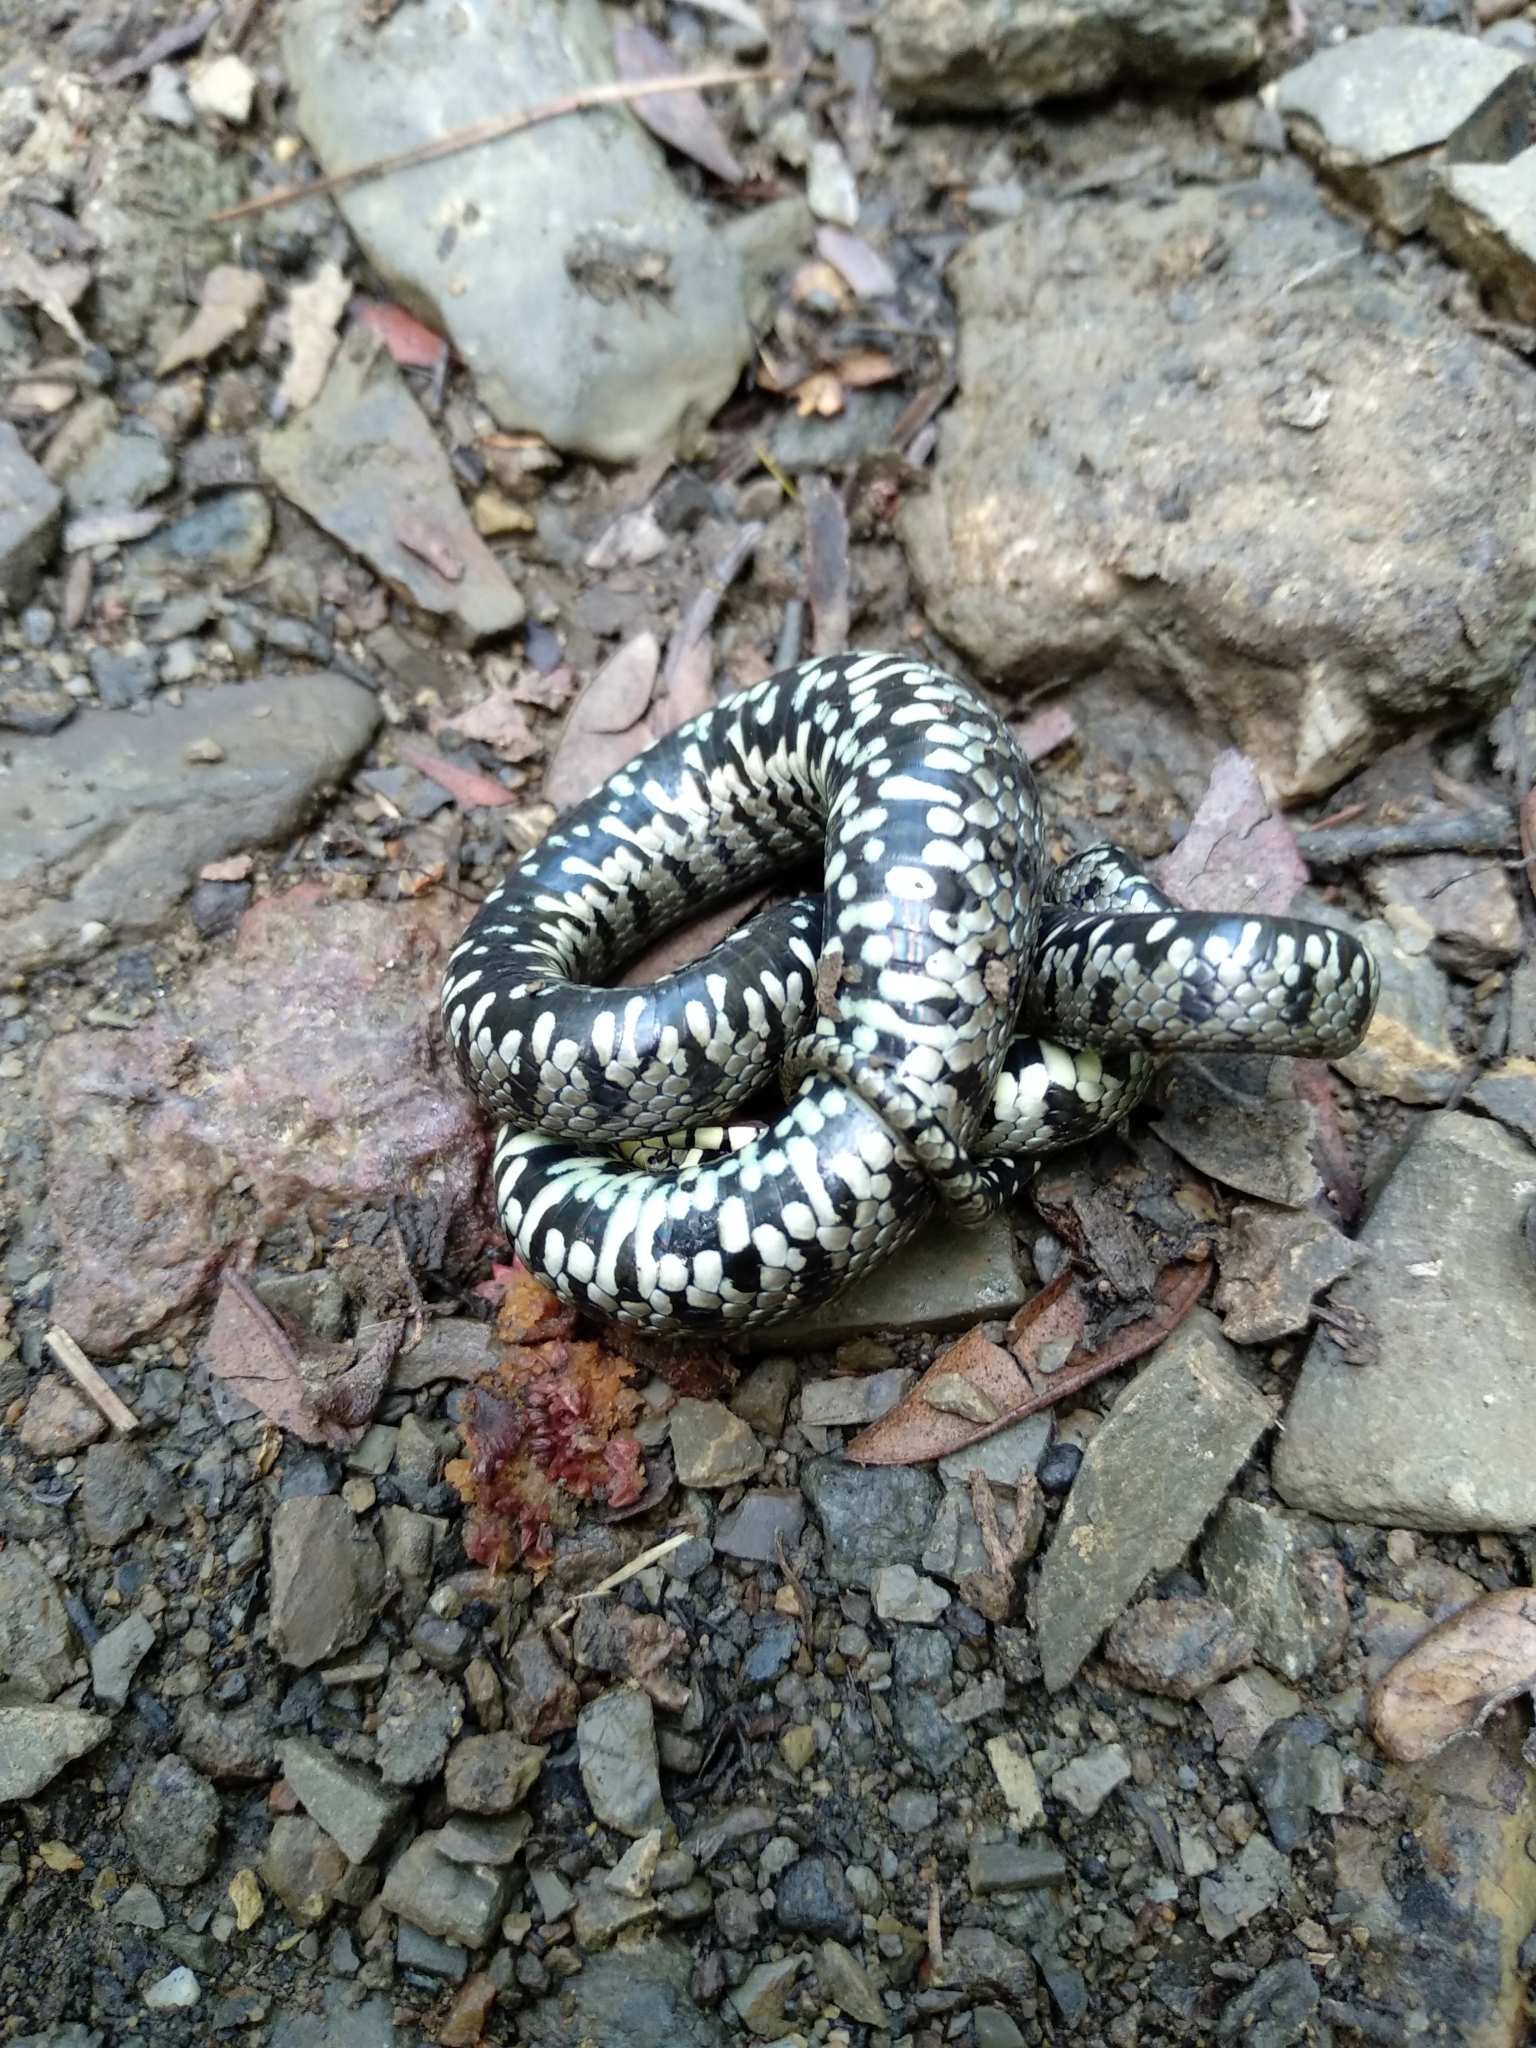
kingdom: Animalia
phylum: Chordata
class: Squamata
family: Colubridae
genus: Natrix
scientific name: Natrix helvetica
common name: Banded grass snake
